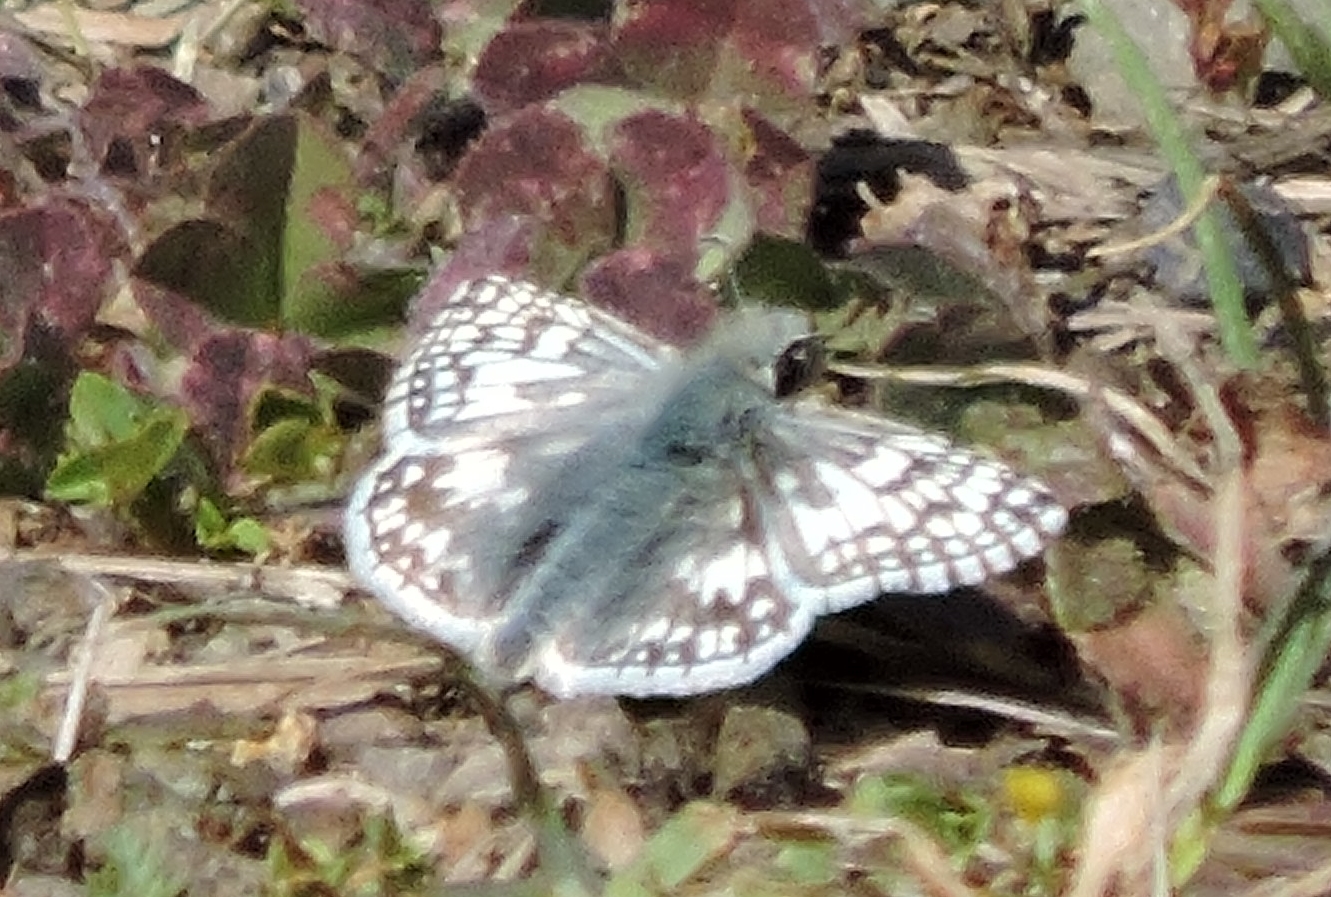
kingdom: Animalia
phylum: Arthropoda
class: Insecta
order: Lepidoptera
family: Hesperiidae
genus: Burnsius
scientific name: Burnsius communis
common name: Common checkered-skipper
